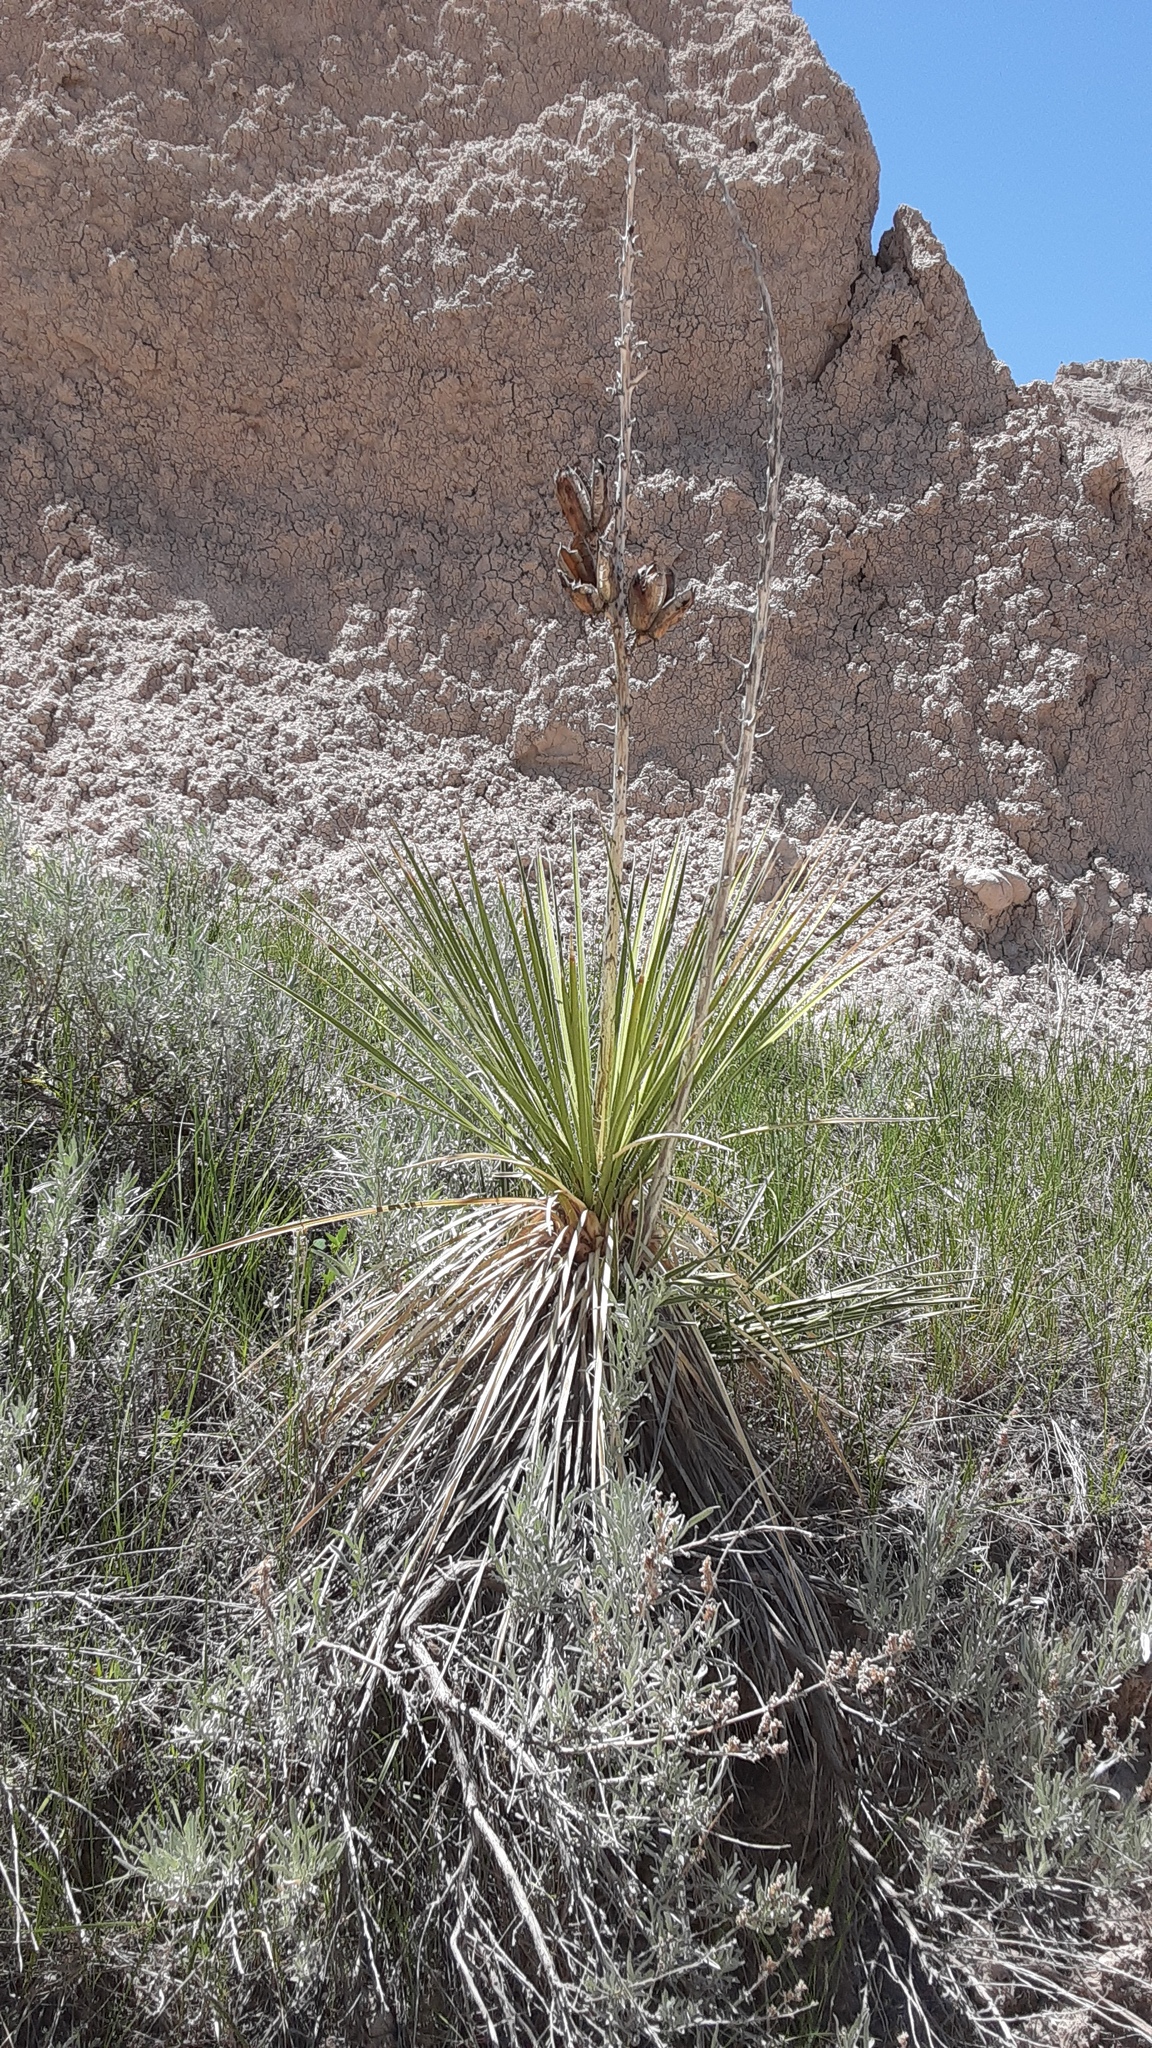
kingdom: Plantae
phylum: Tracheophyta
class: Liliopsida
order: Asparagales
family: Asparagaceae
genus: Yucca
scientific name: Yucca glauca
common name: Great plains yucca
